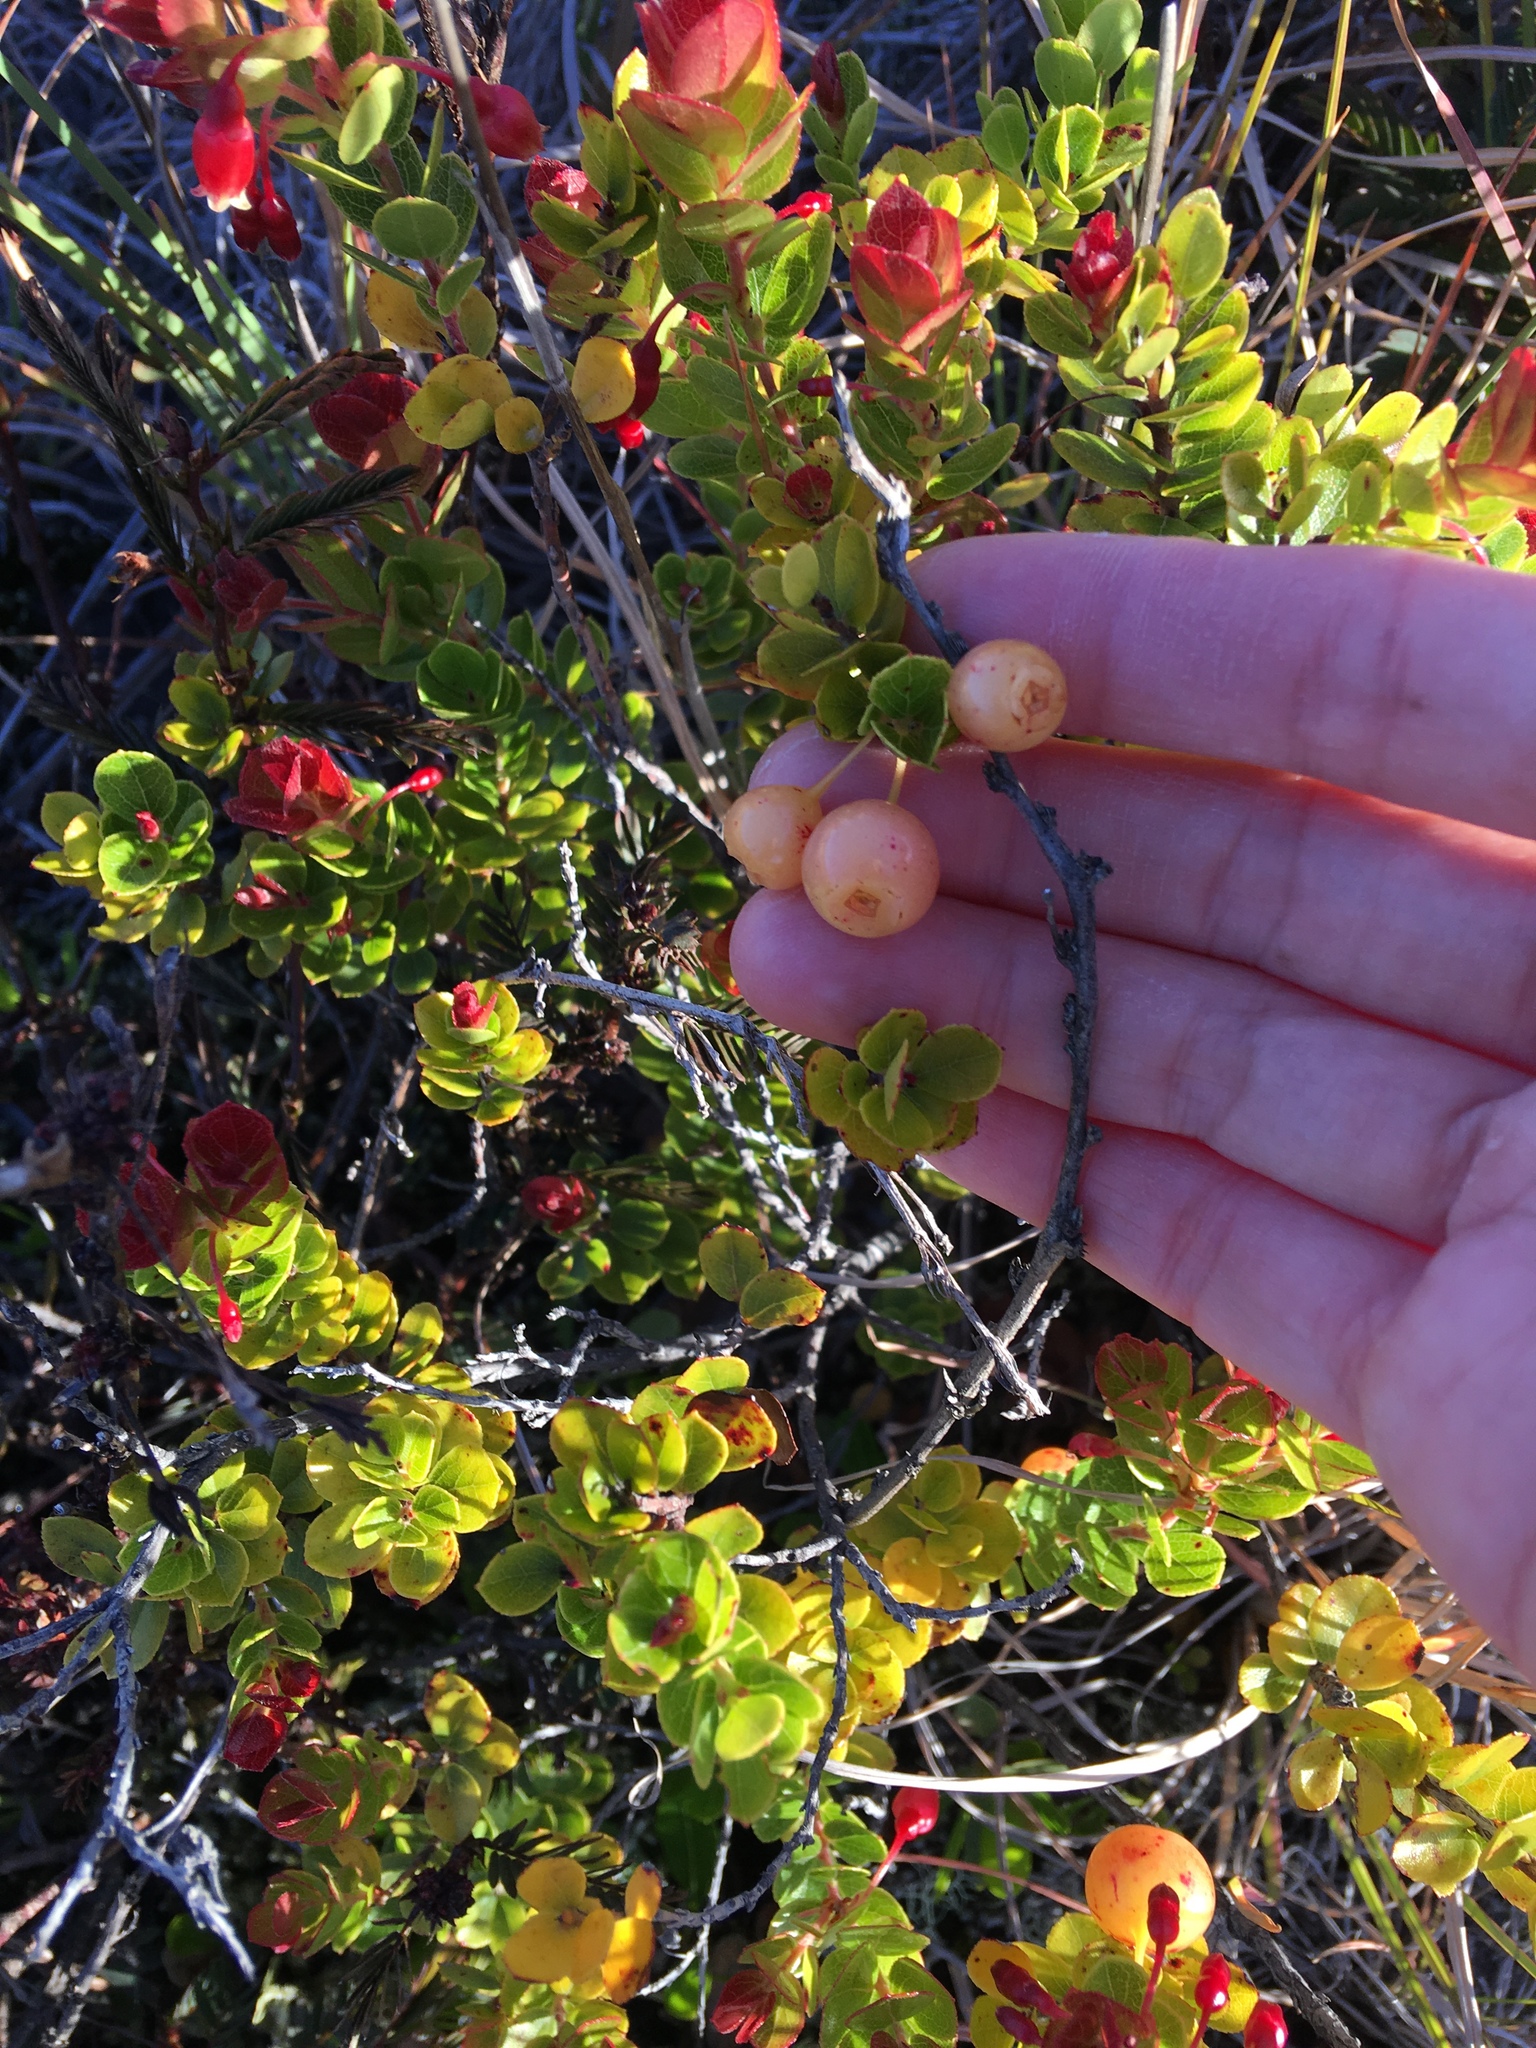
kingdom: Plantae
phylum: Tracheophyta
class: Magnoliopsida
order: Ericales
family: Ericaceae
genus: Vaccinium
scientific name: Vaccinium reticulatum
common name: Ohelo
